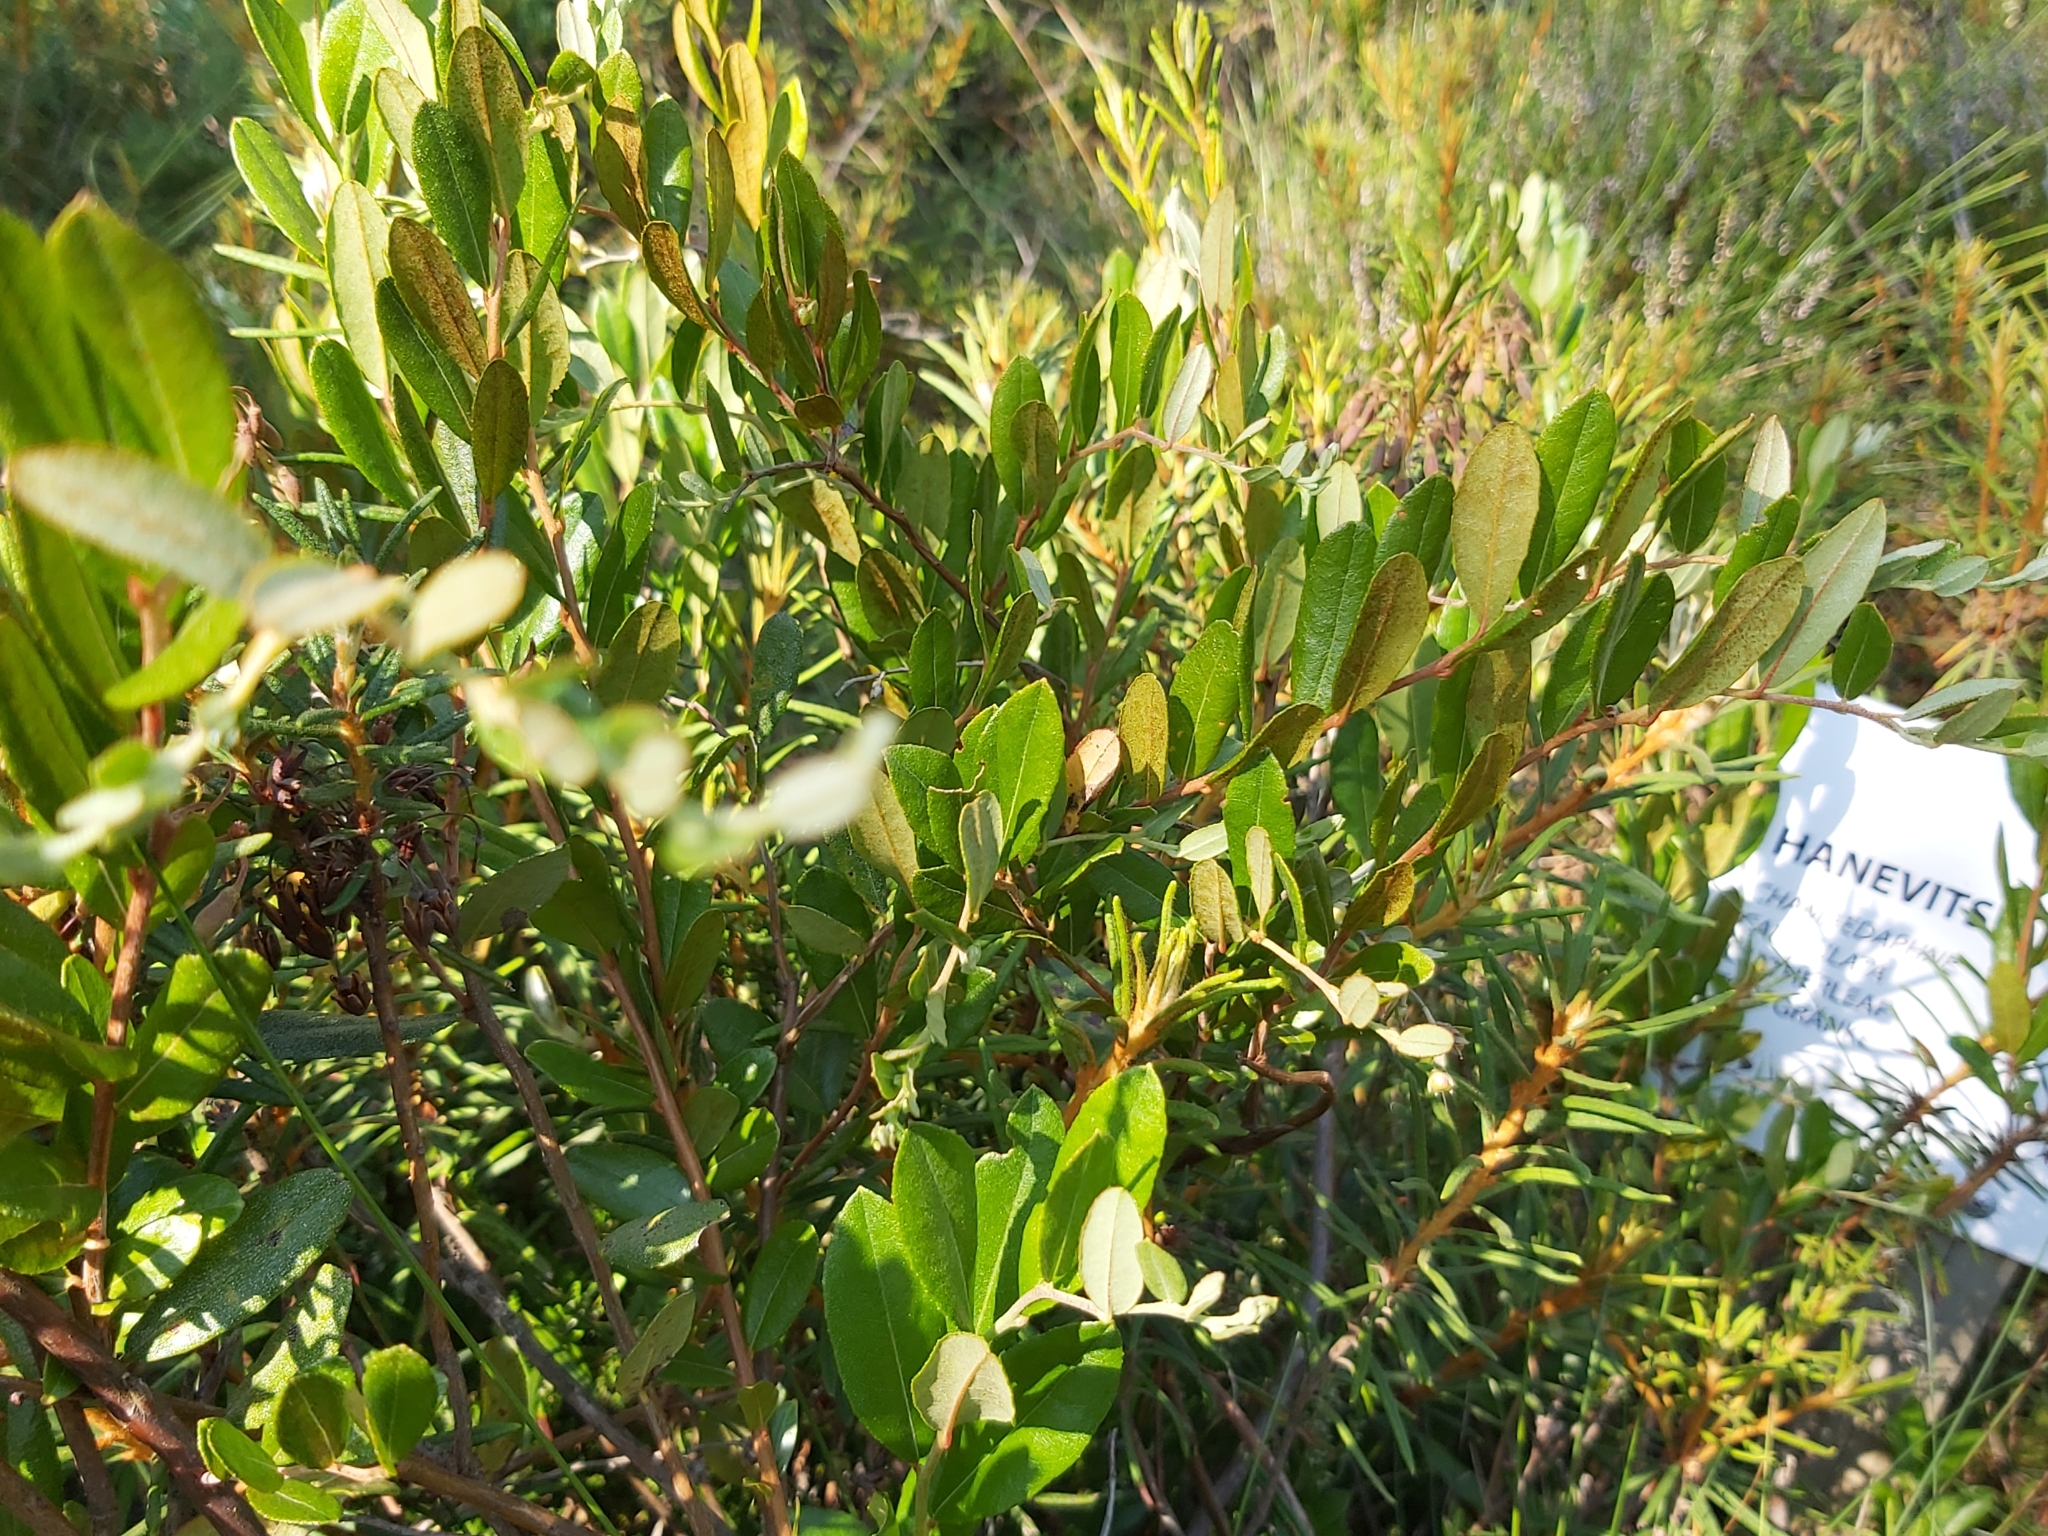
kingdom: Plantae
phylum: Tracheophyta
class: Magnoliopsida
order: Ericales
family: Ericaceae
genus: Chamaedaphne
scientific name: Chamaedaphne calyculata
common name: Leatherleaf
